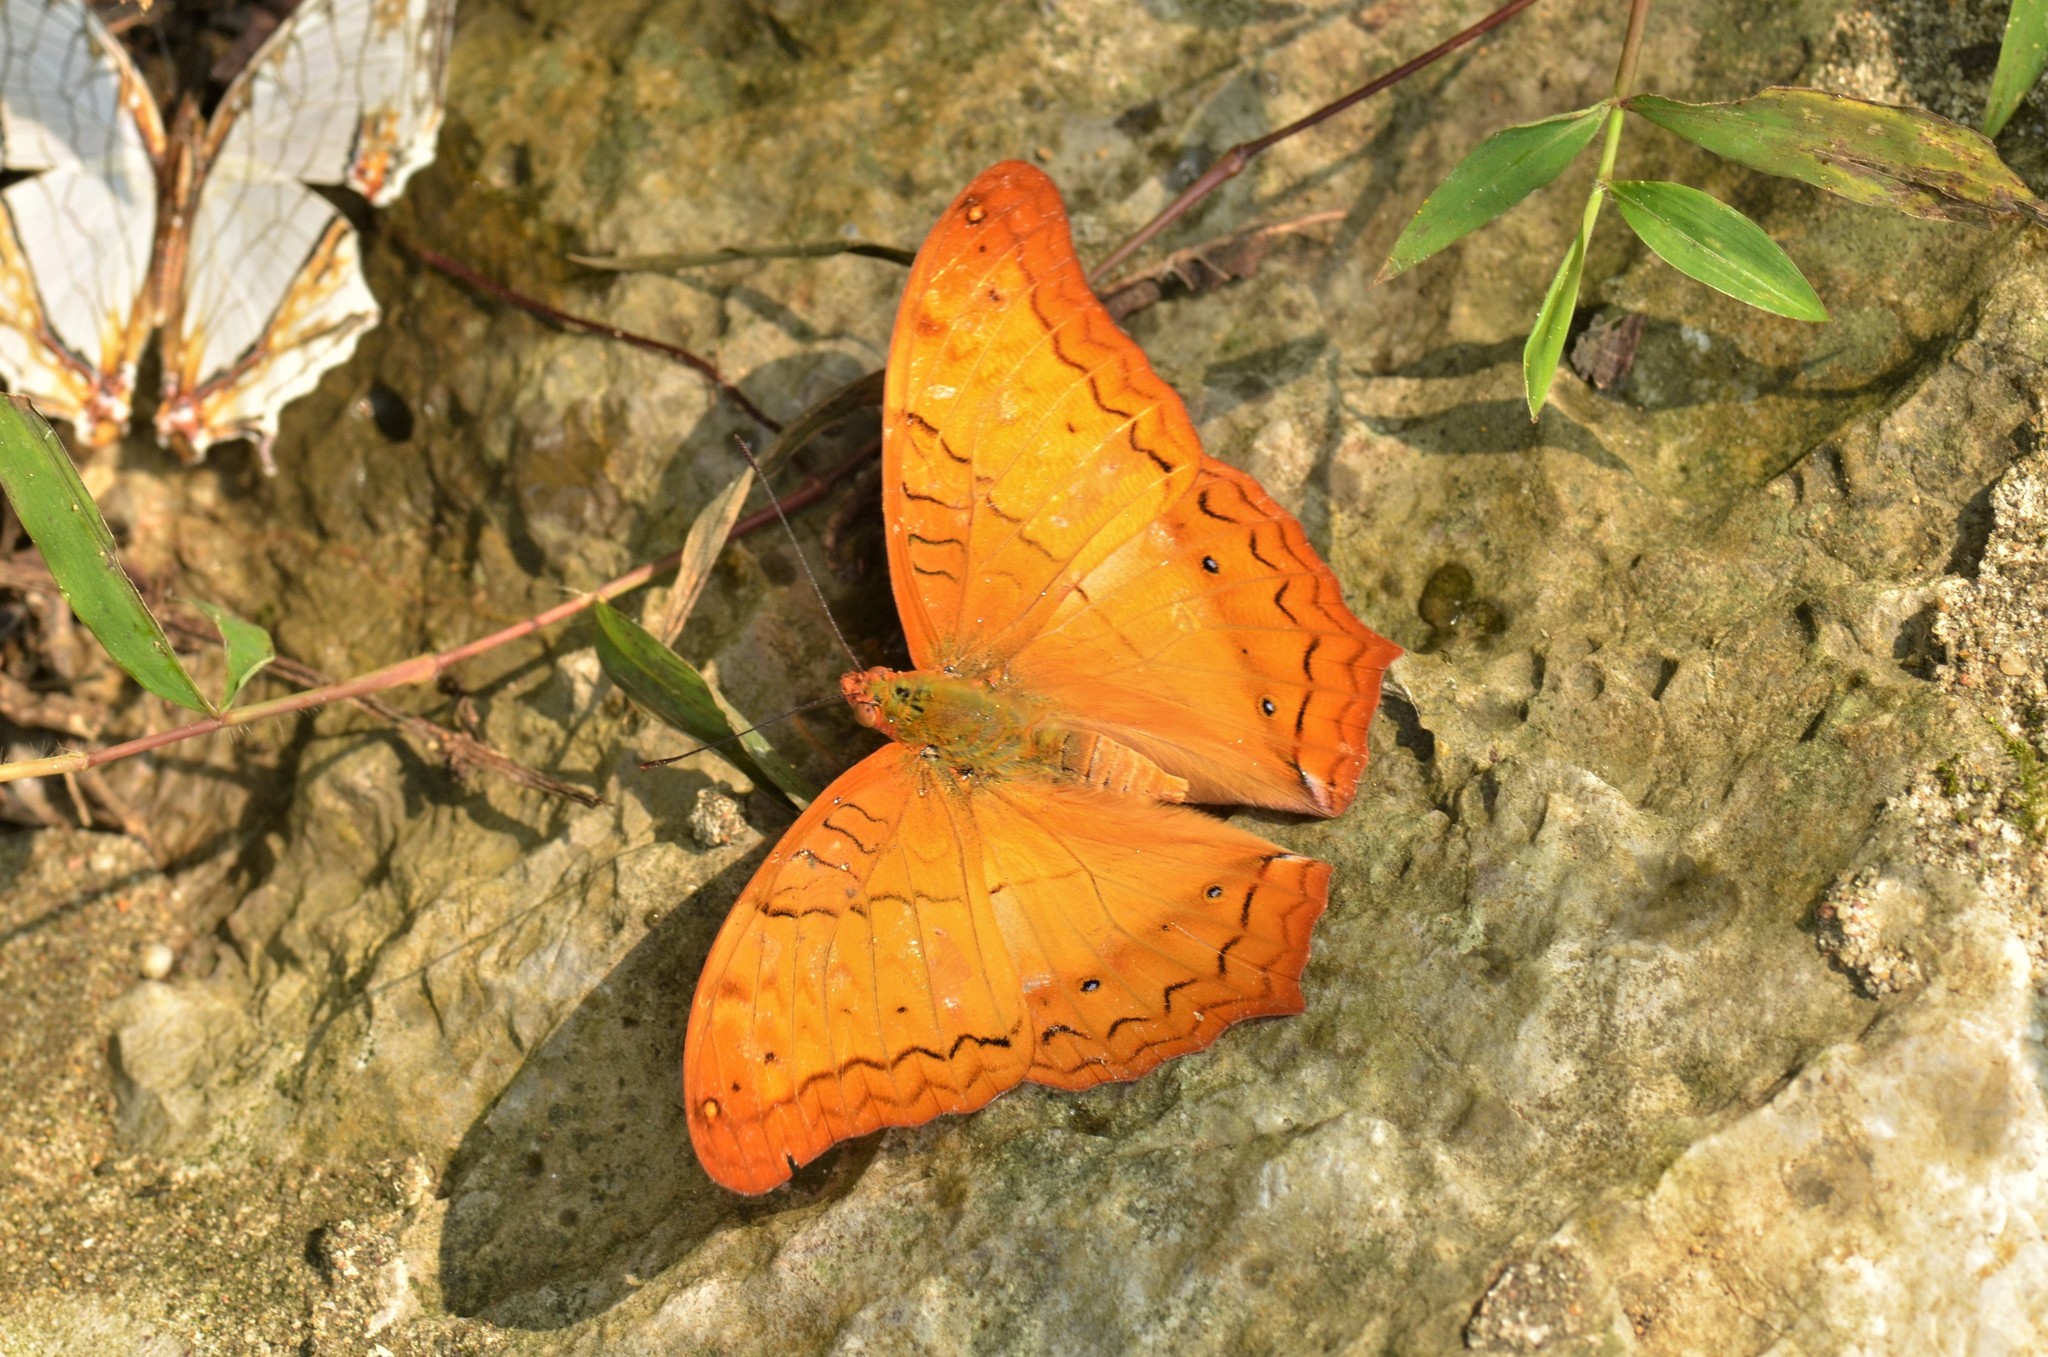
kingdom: Animalia
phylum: Arthropoda
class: Insecta
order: Lepidoptera
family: Nymphalidae
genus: Vindula
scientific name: Vindula erota
